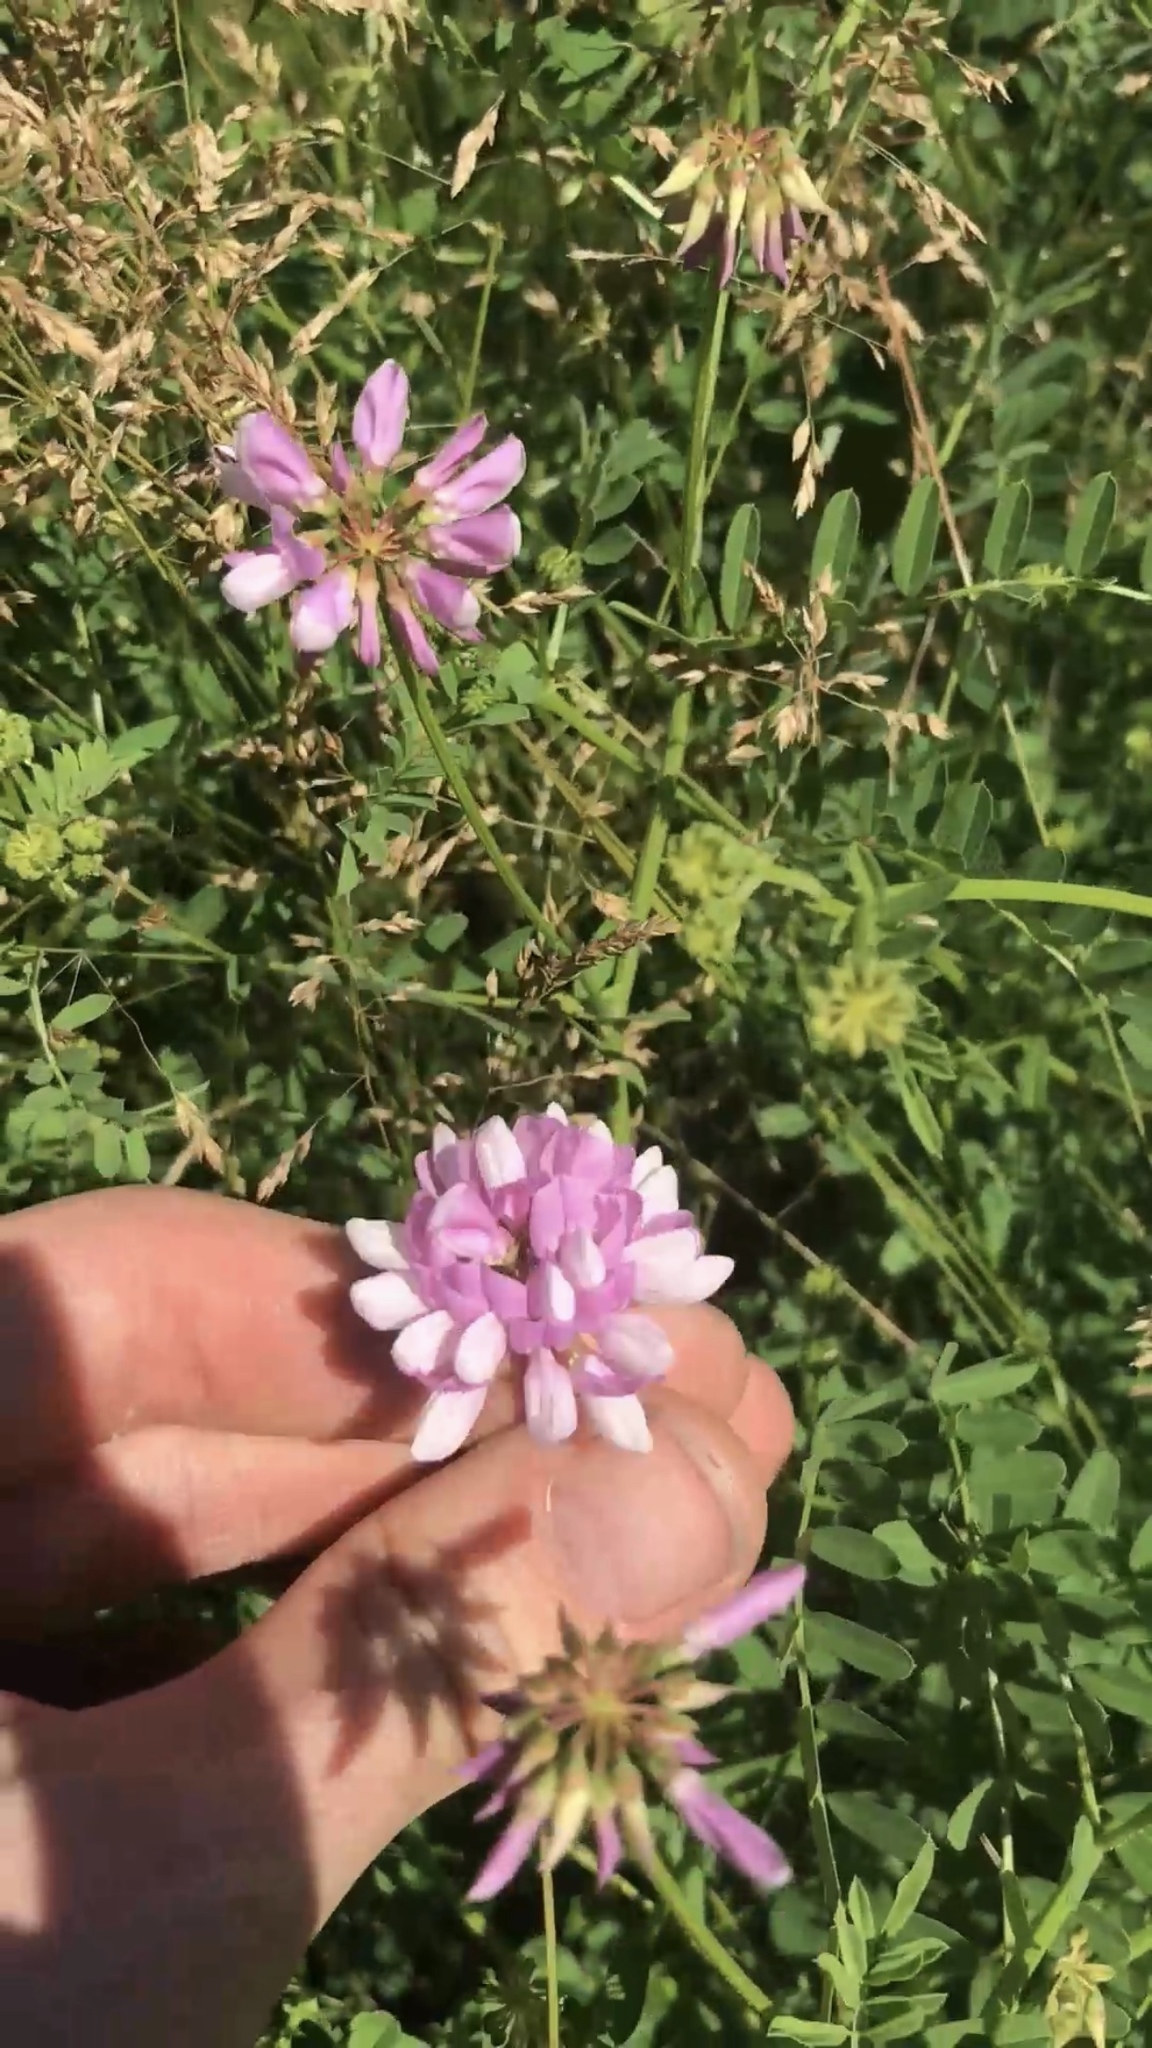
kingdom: Plantae
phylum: Tracheophyta
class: Magnoliopsida
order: Fabales
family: Fabaceae
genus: Coronilla
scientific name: Coronilla varia
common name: Crownvetch
